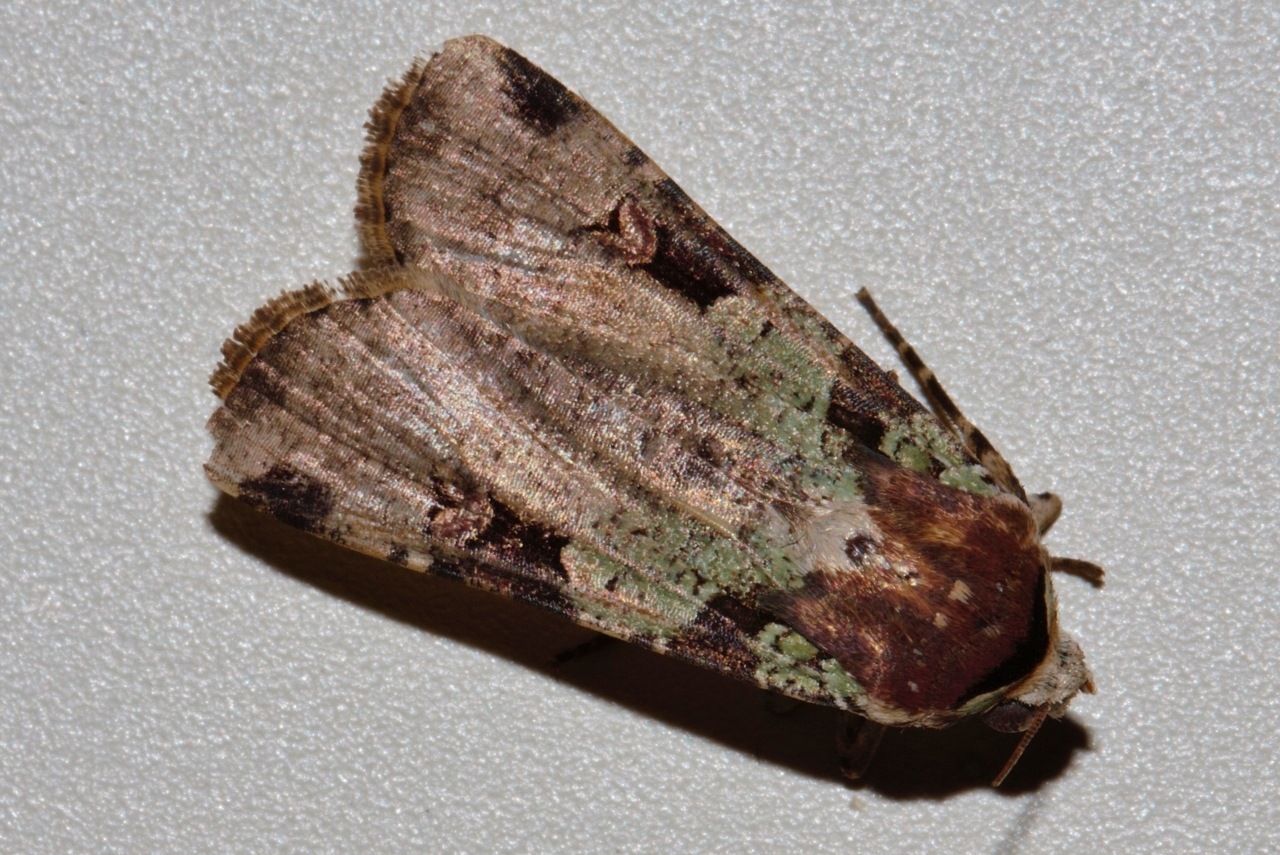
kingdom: Animalia
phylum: Arthropoda
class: Insecta
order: Lepidoptera
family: Noctuidae
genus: Mentaxya
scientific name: Mentaxya ignicollis
